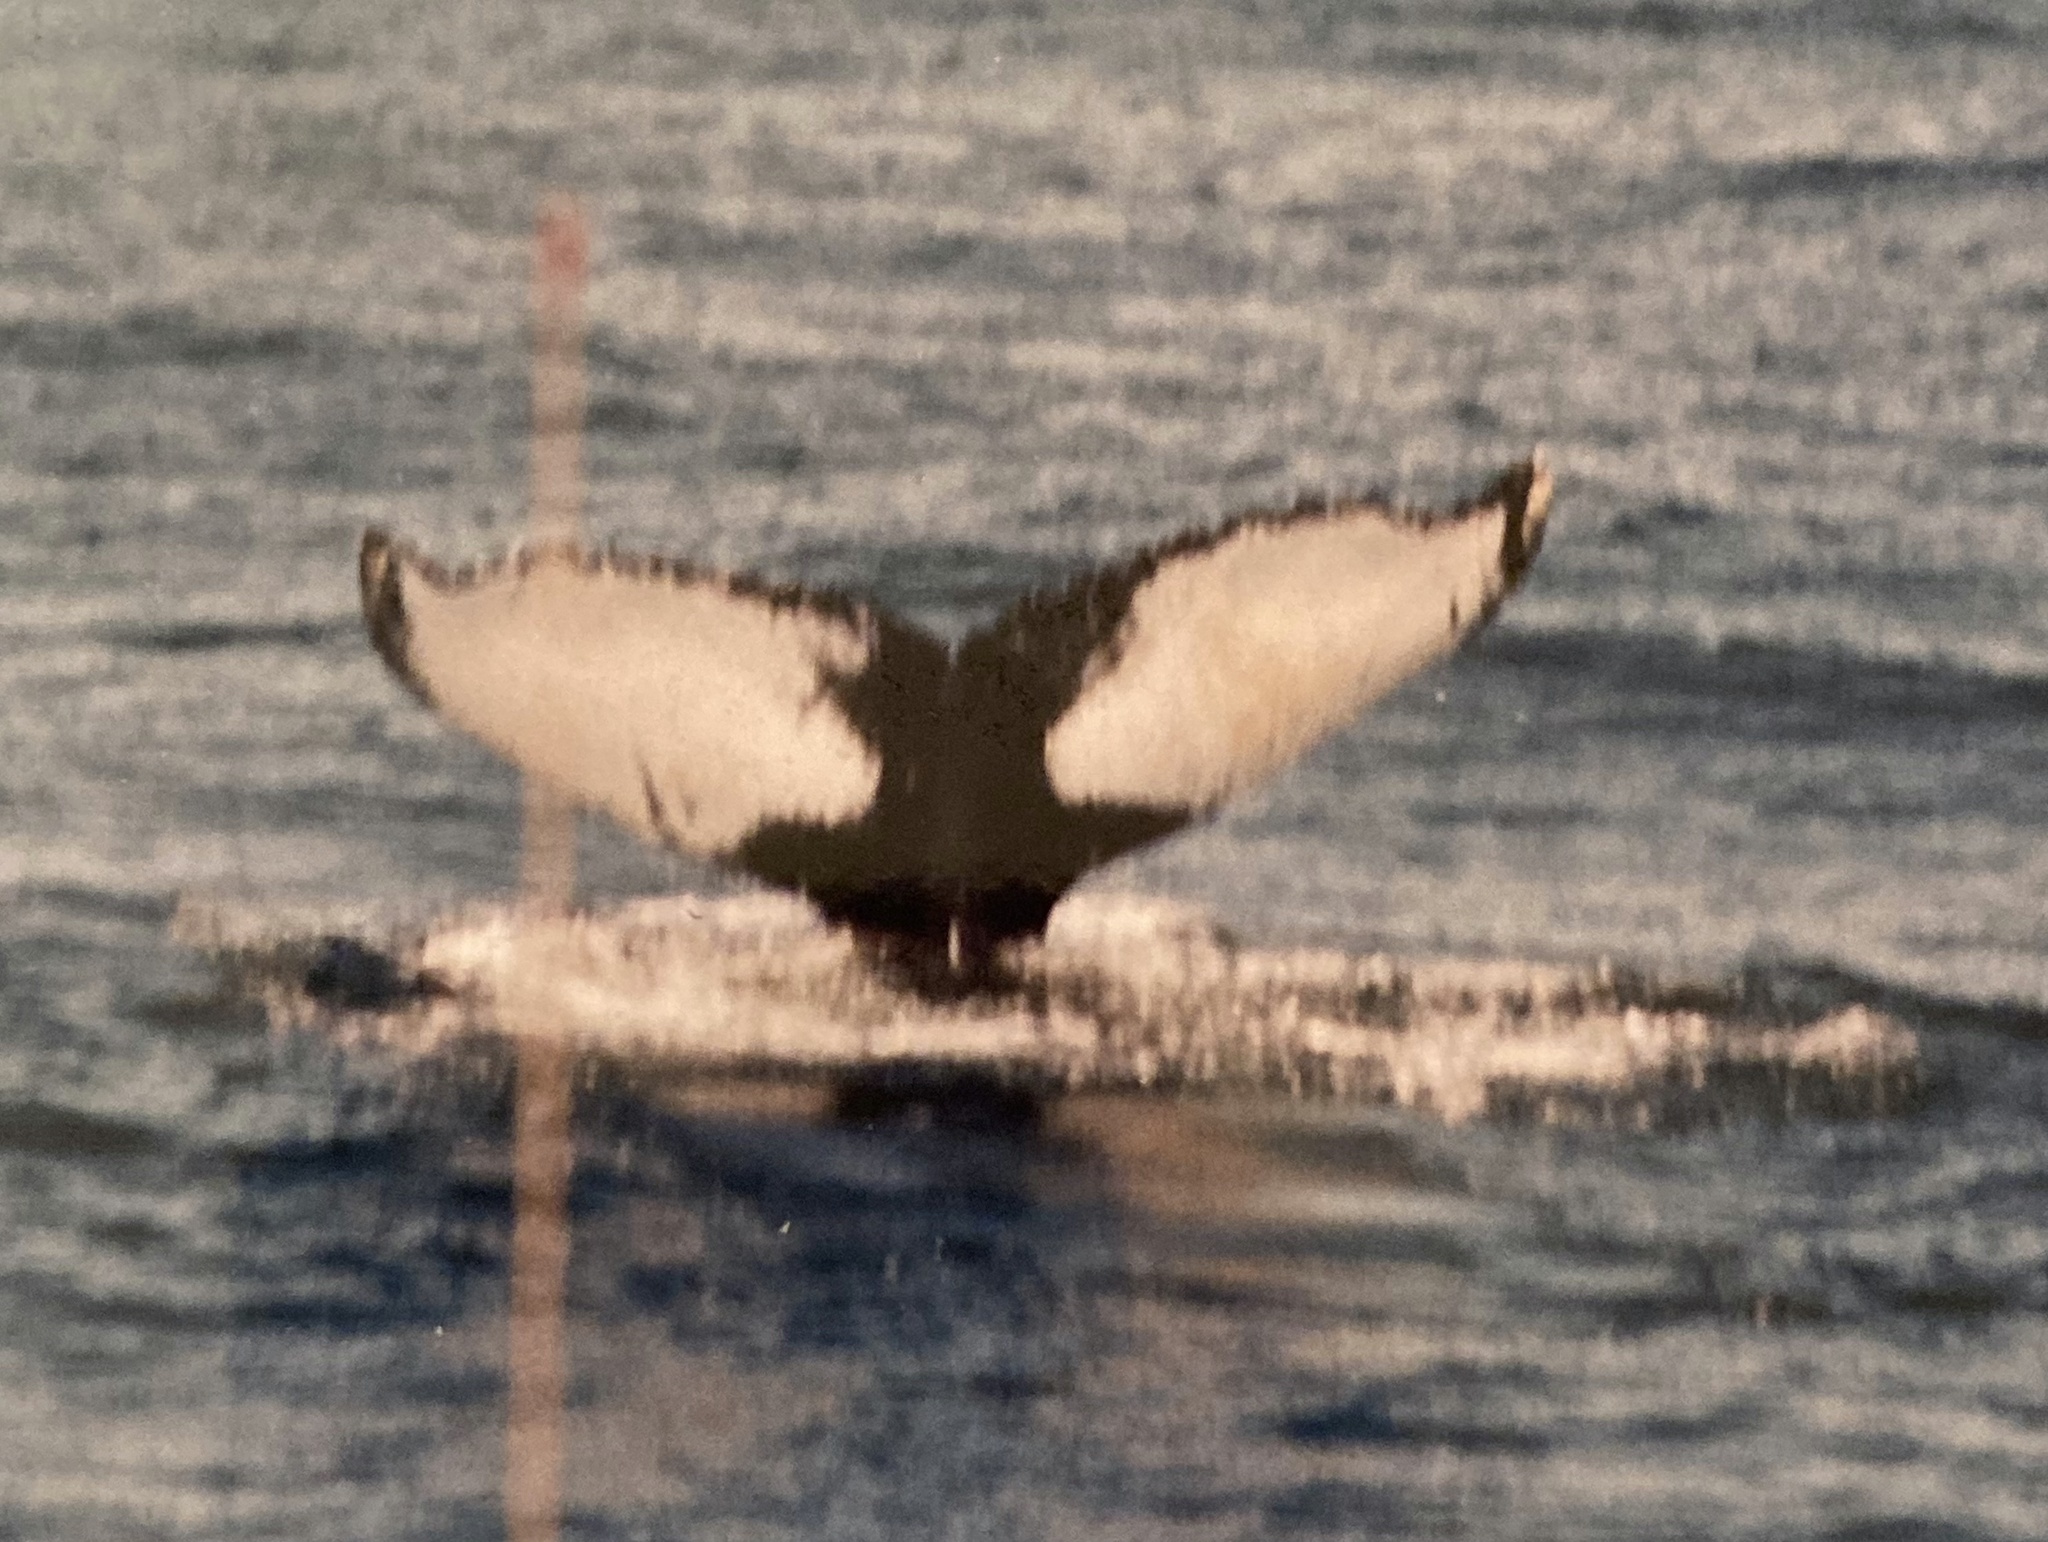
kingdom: Animalia
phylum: Chordata
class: Mammalia
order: Cetacea
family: Balaenopteridae
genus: Megaptera
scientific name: Megaptera novaeangliae
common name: Humpback whale
